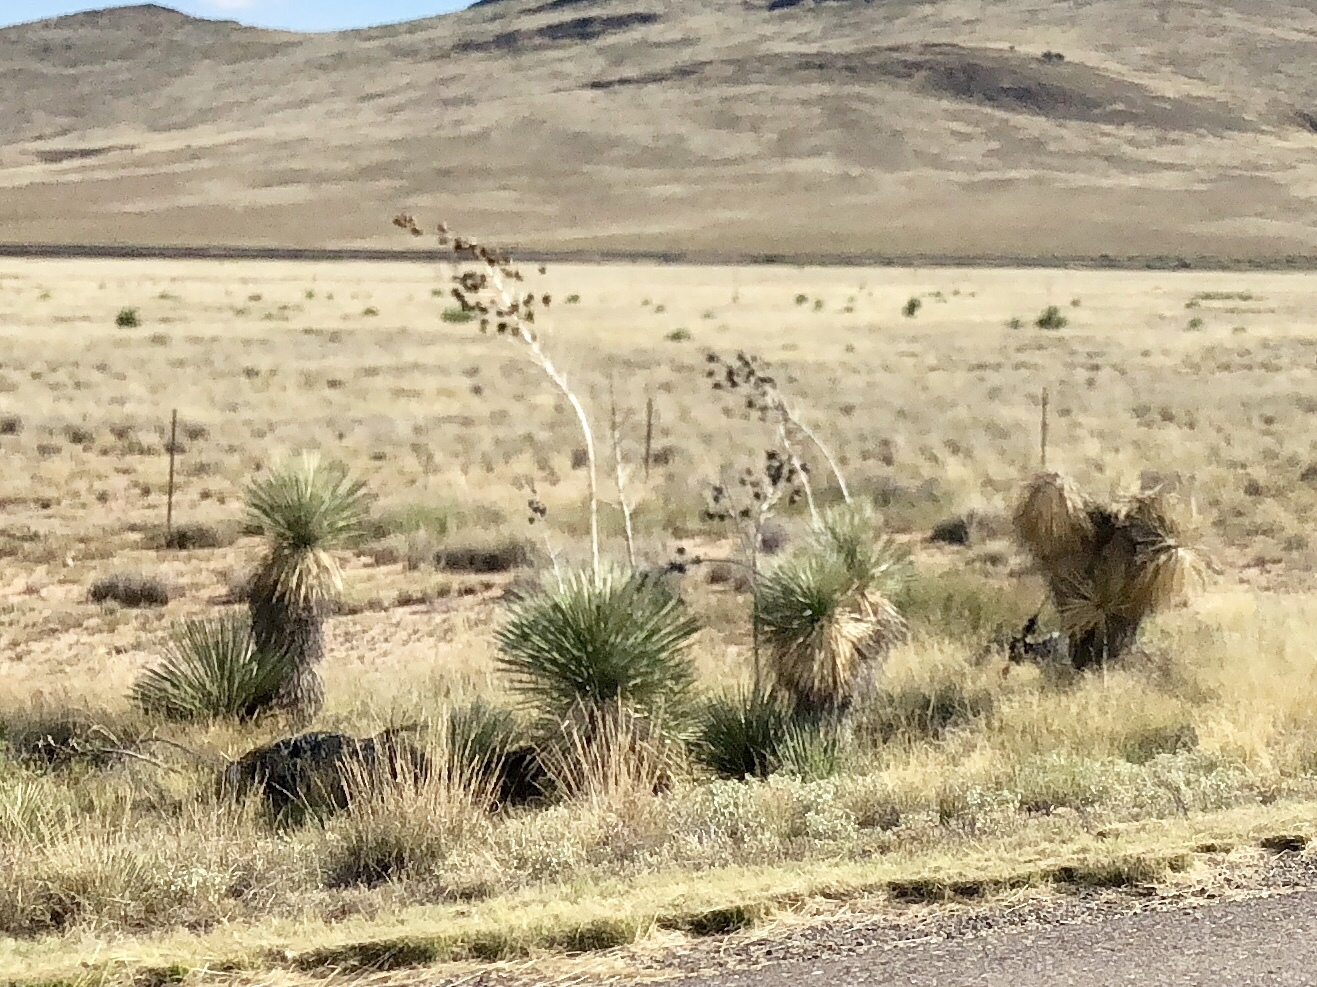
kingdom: Plantae
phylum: Tracheophyta
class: Liliopsida
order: Asparagales
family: Asparagaceae
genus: Yucca
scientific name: Yucca elata
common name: Palmella
